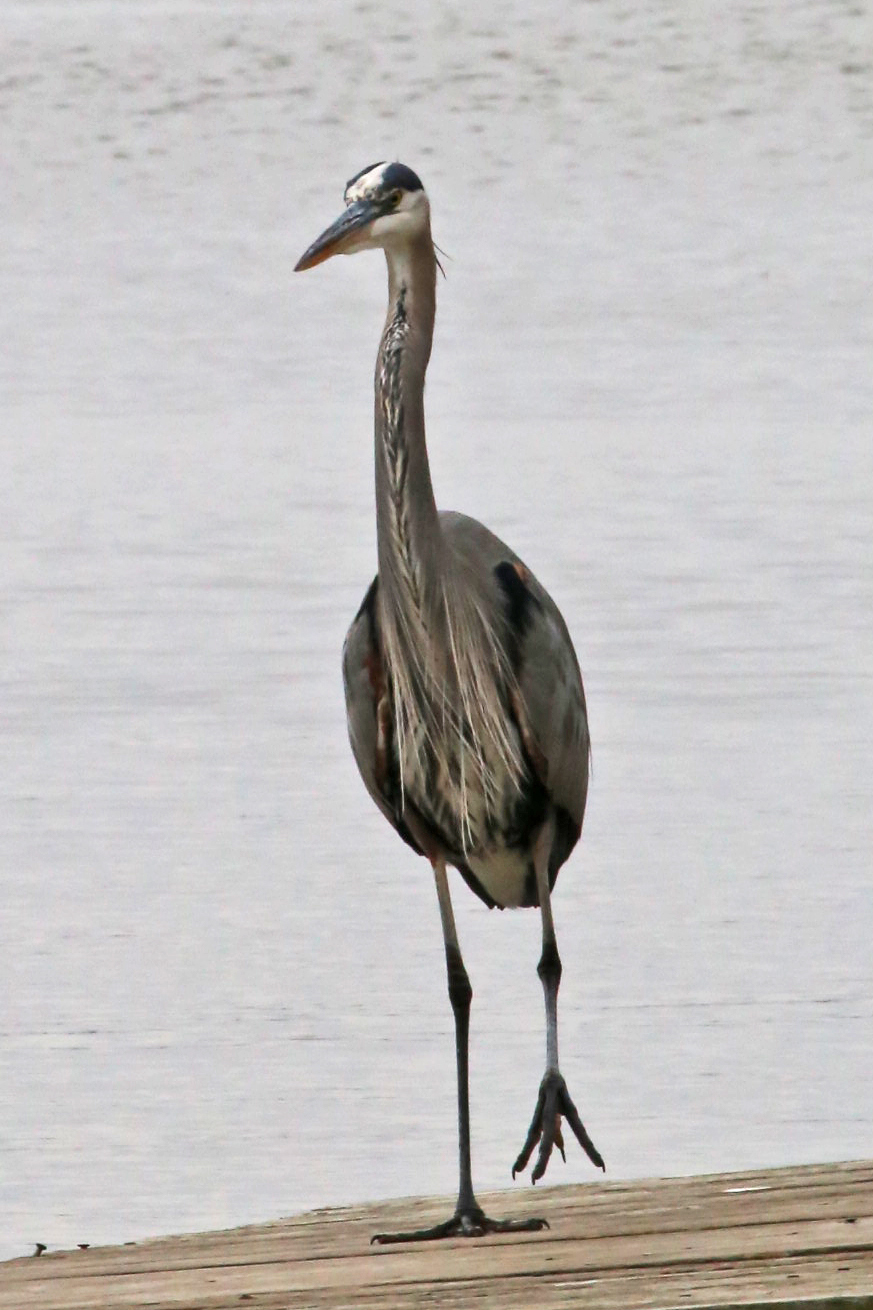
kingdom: Animalia
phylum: Chordata
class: Aves
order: Pelecaniformes
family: Ardeidae
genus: Ardea
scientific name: Ardea herodias
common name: Great blue heron
